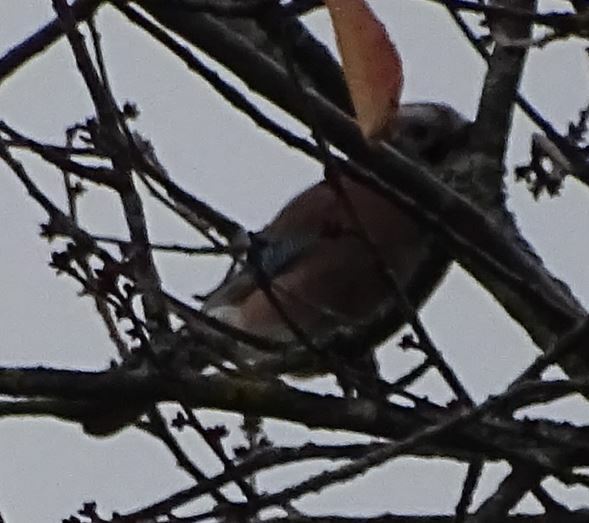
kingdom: Animalia
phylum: Chordata
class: Aves
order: Passeriformes
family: Corvidae
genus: Garrulus
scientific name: Garrulus glandarius
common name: Eurasian jay
